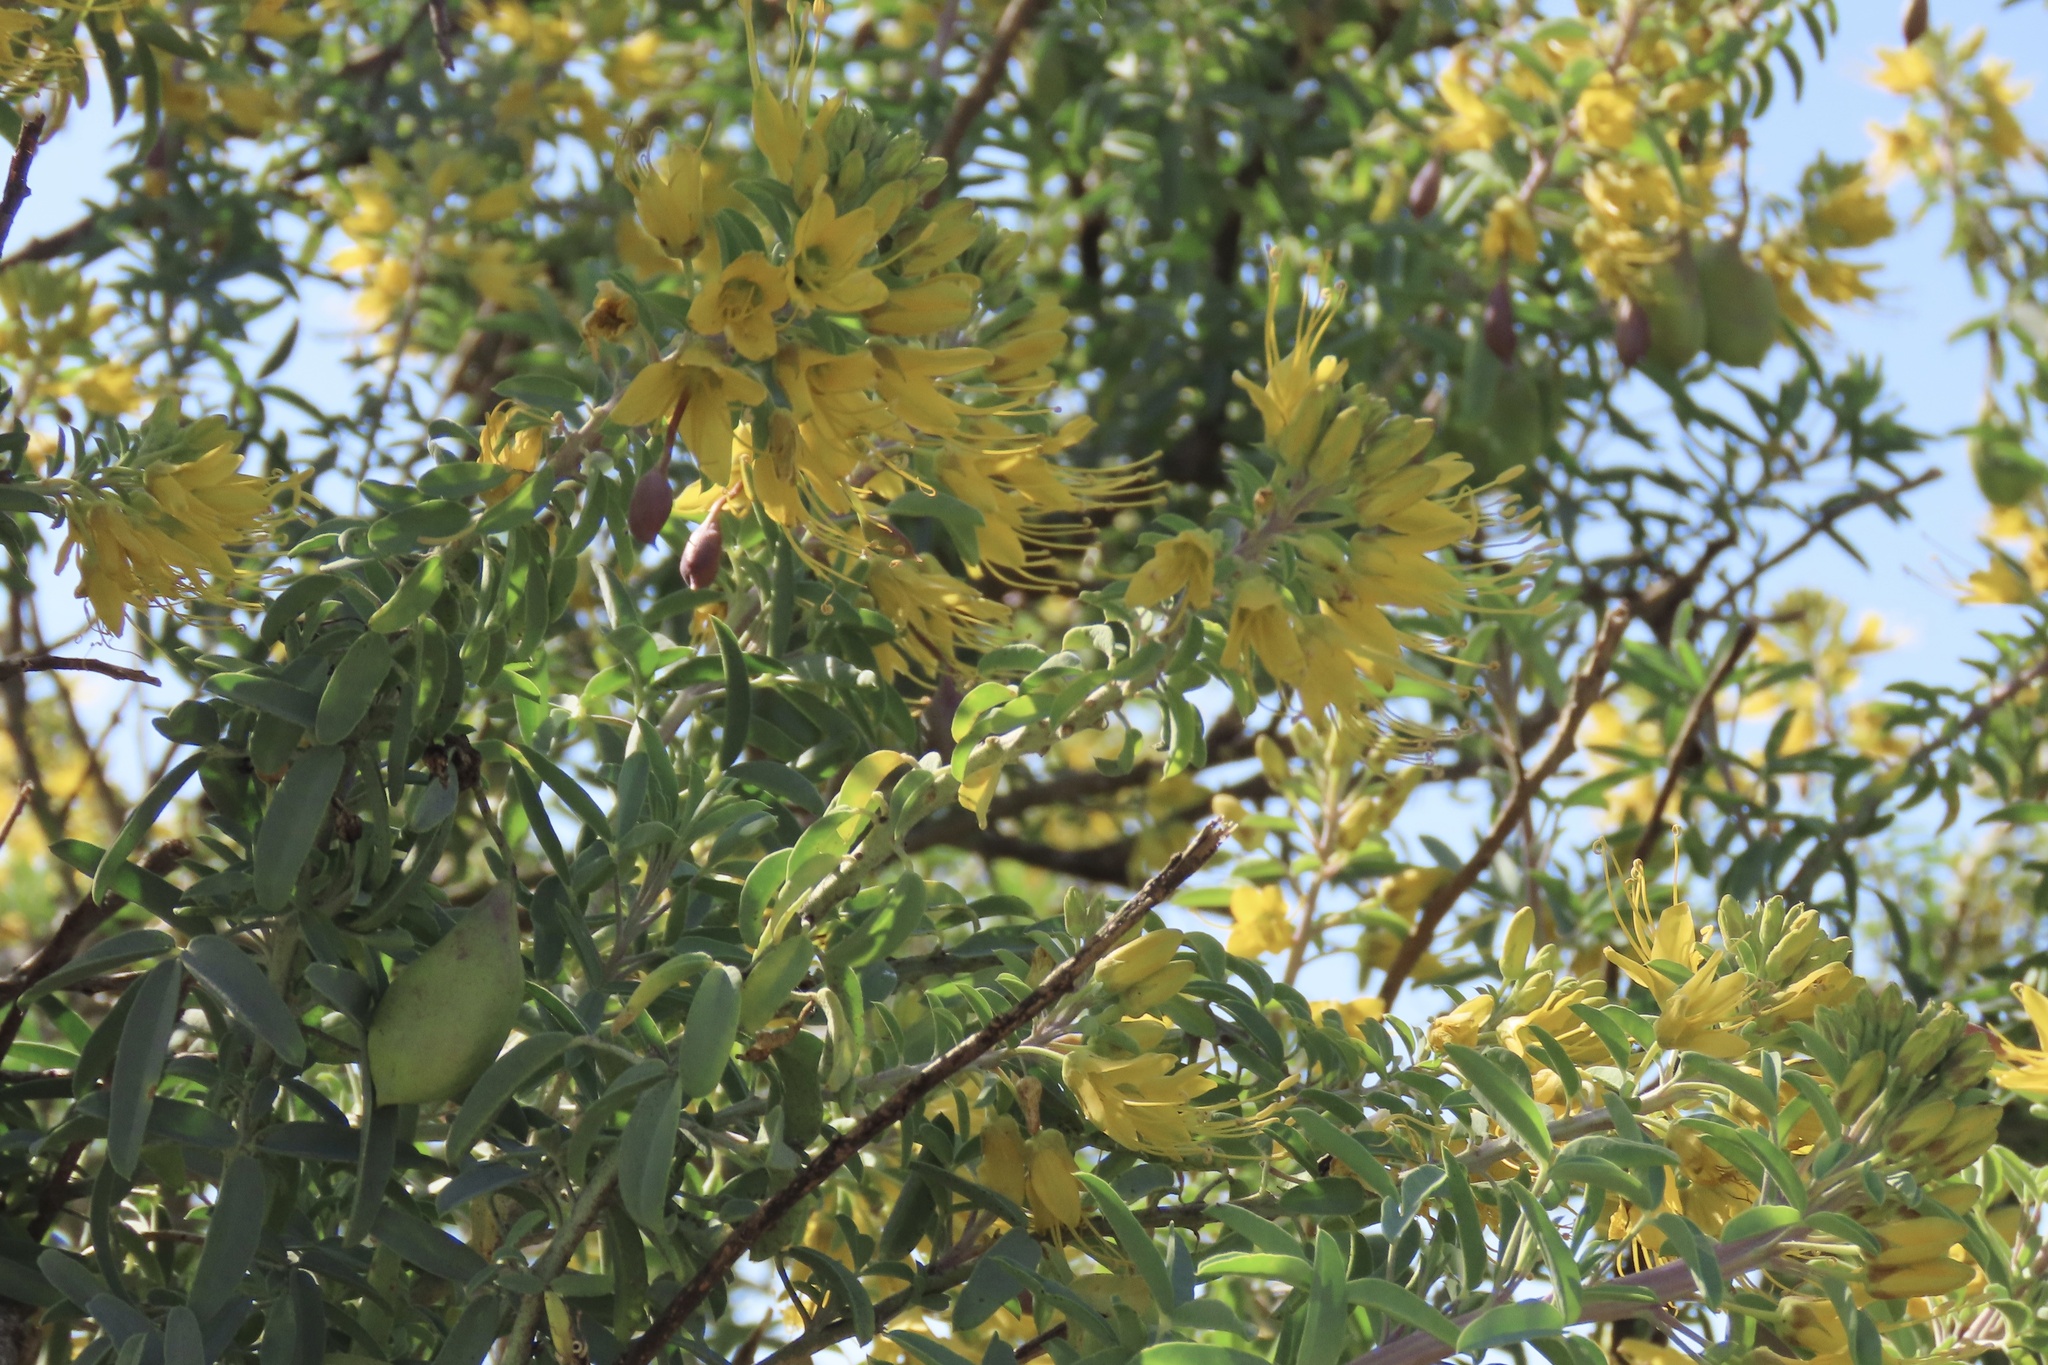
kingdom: Plantae
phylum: Tracheophyta
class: Magnoliopsida
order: Brassicales
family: Cleomaceae
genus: Cleomella
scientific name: Cleomella arborea
